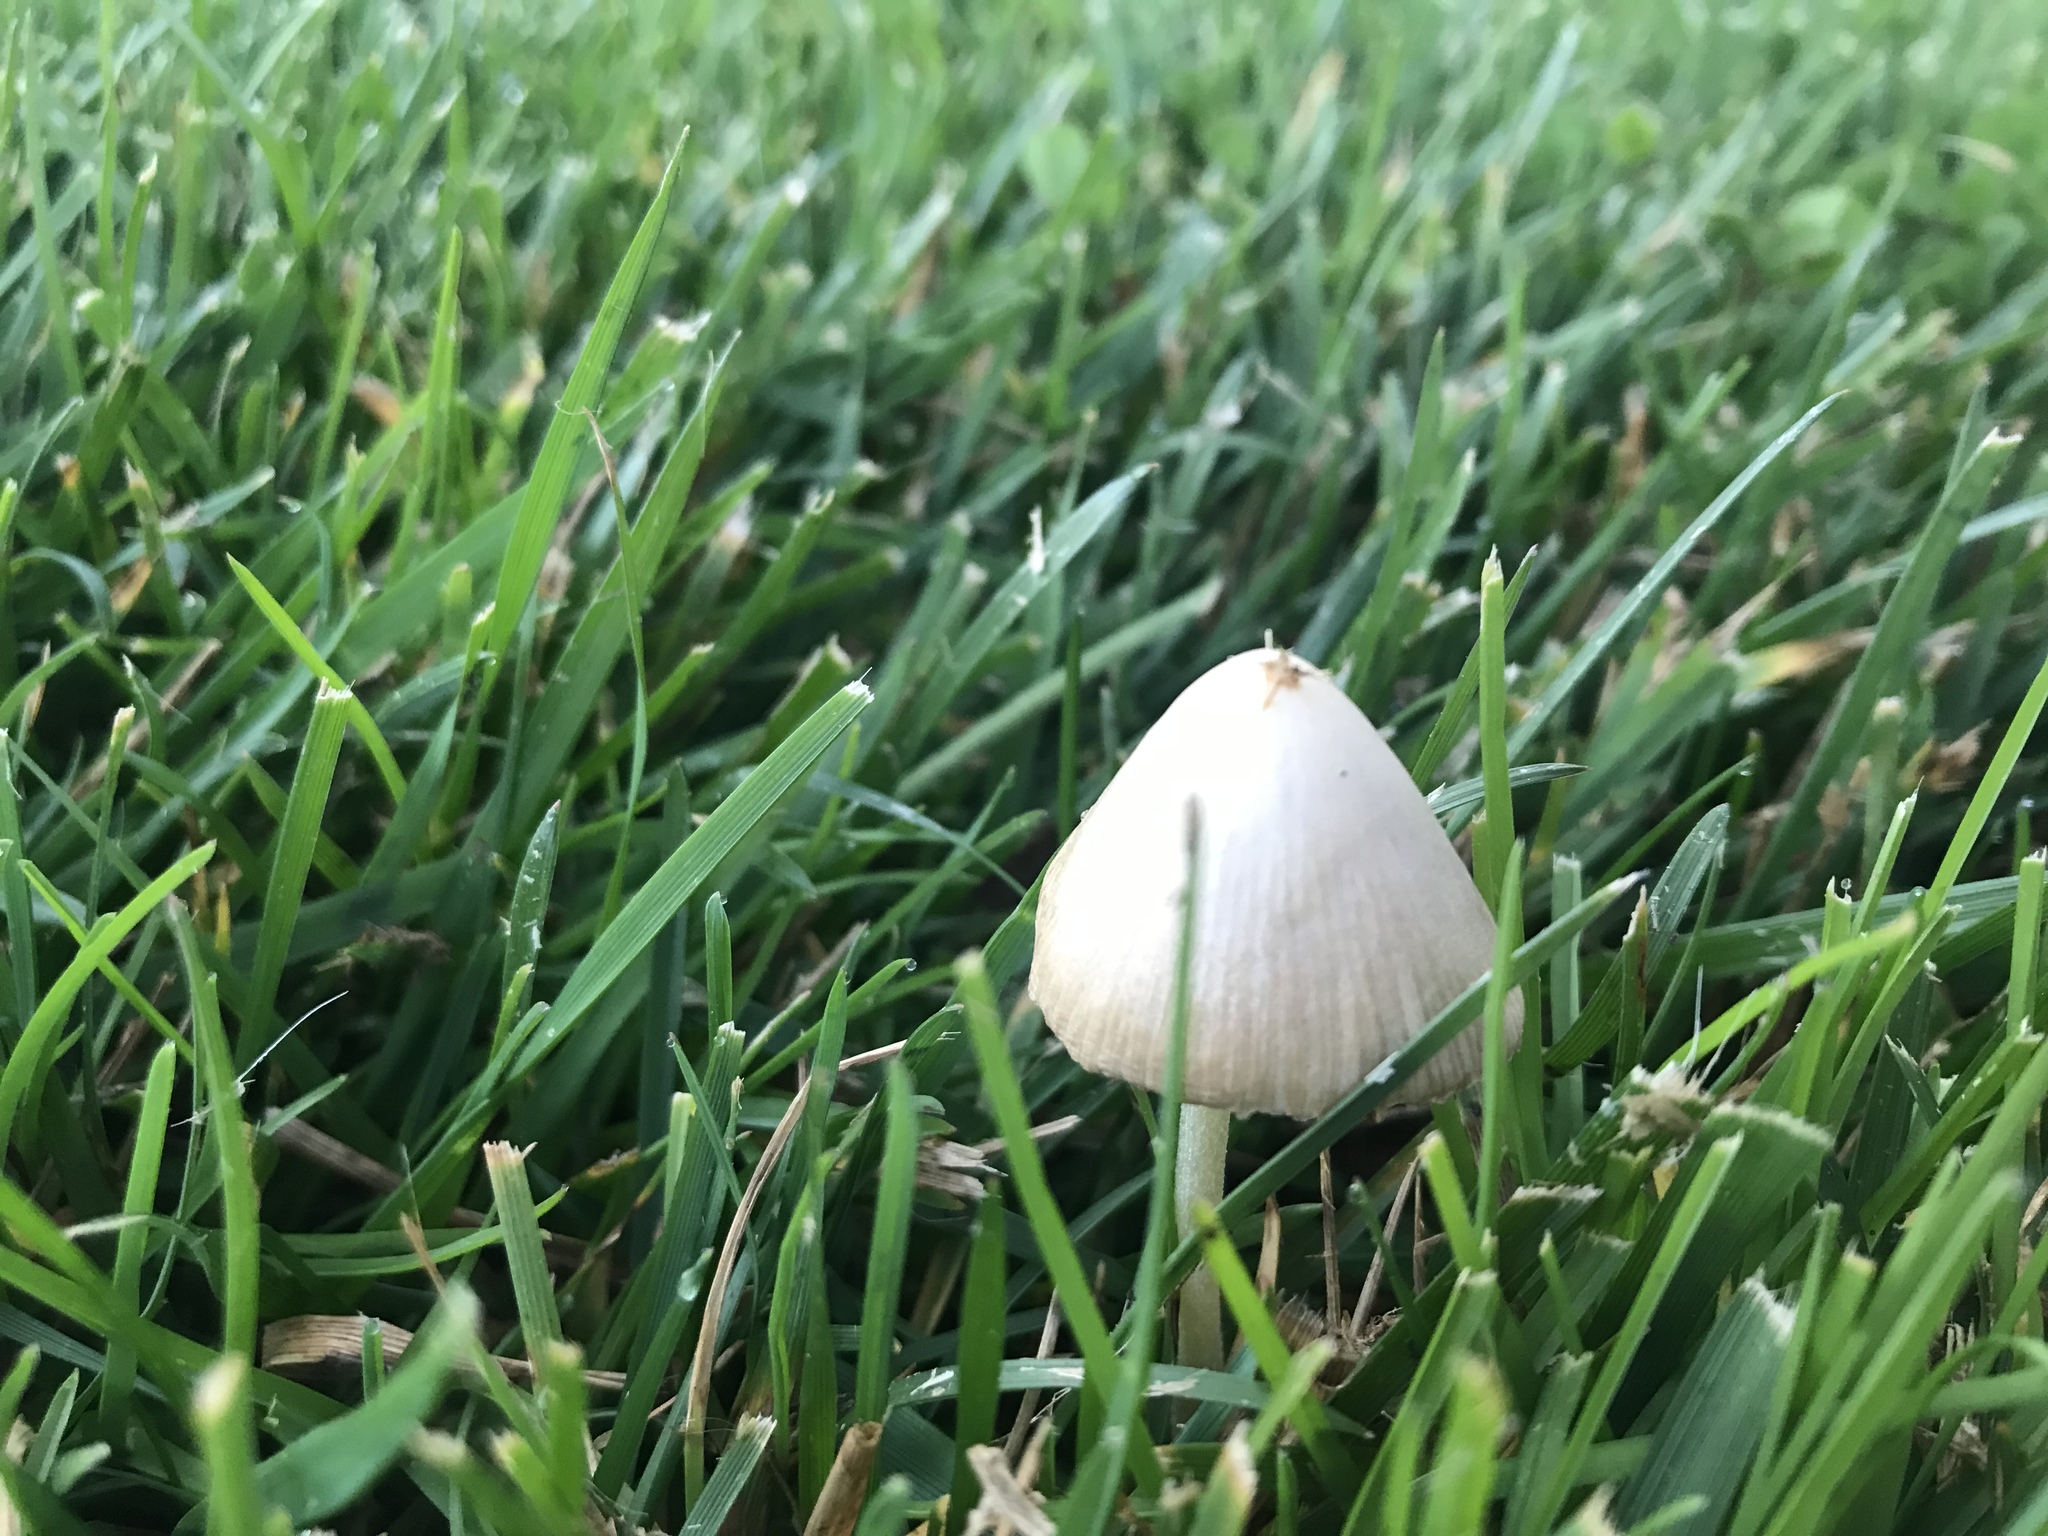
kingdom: Fungi
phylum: Basidiomycota
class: Agaricomycetes
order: Agaricales
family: Bolbitiaceae
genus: Conocybe
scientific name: Conocybe apala
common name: Milky conecap
